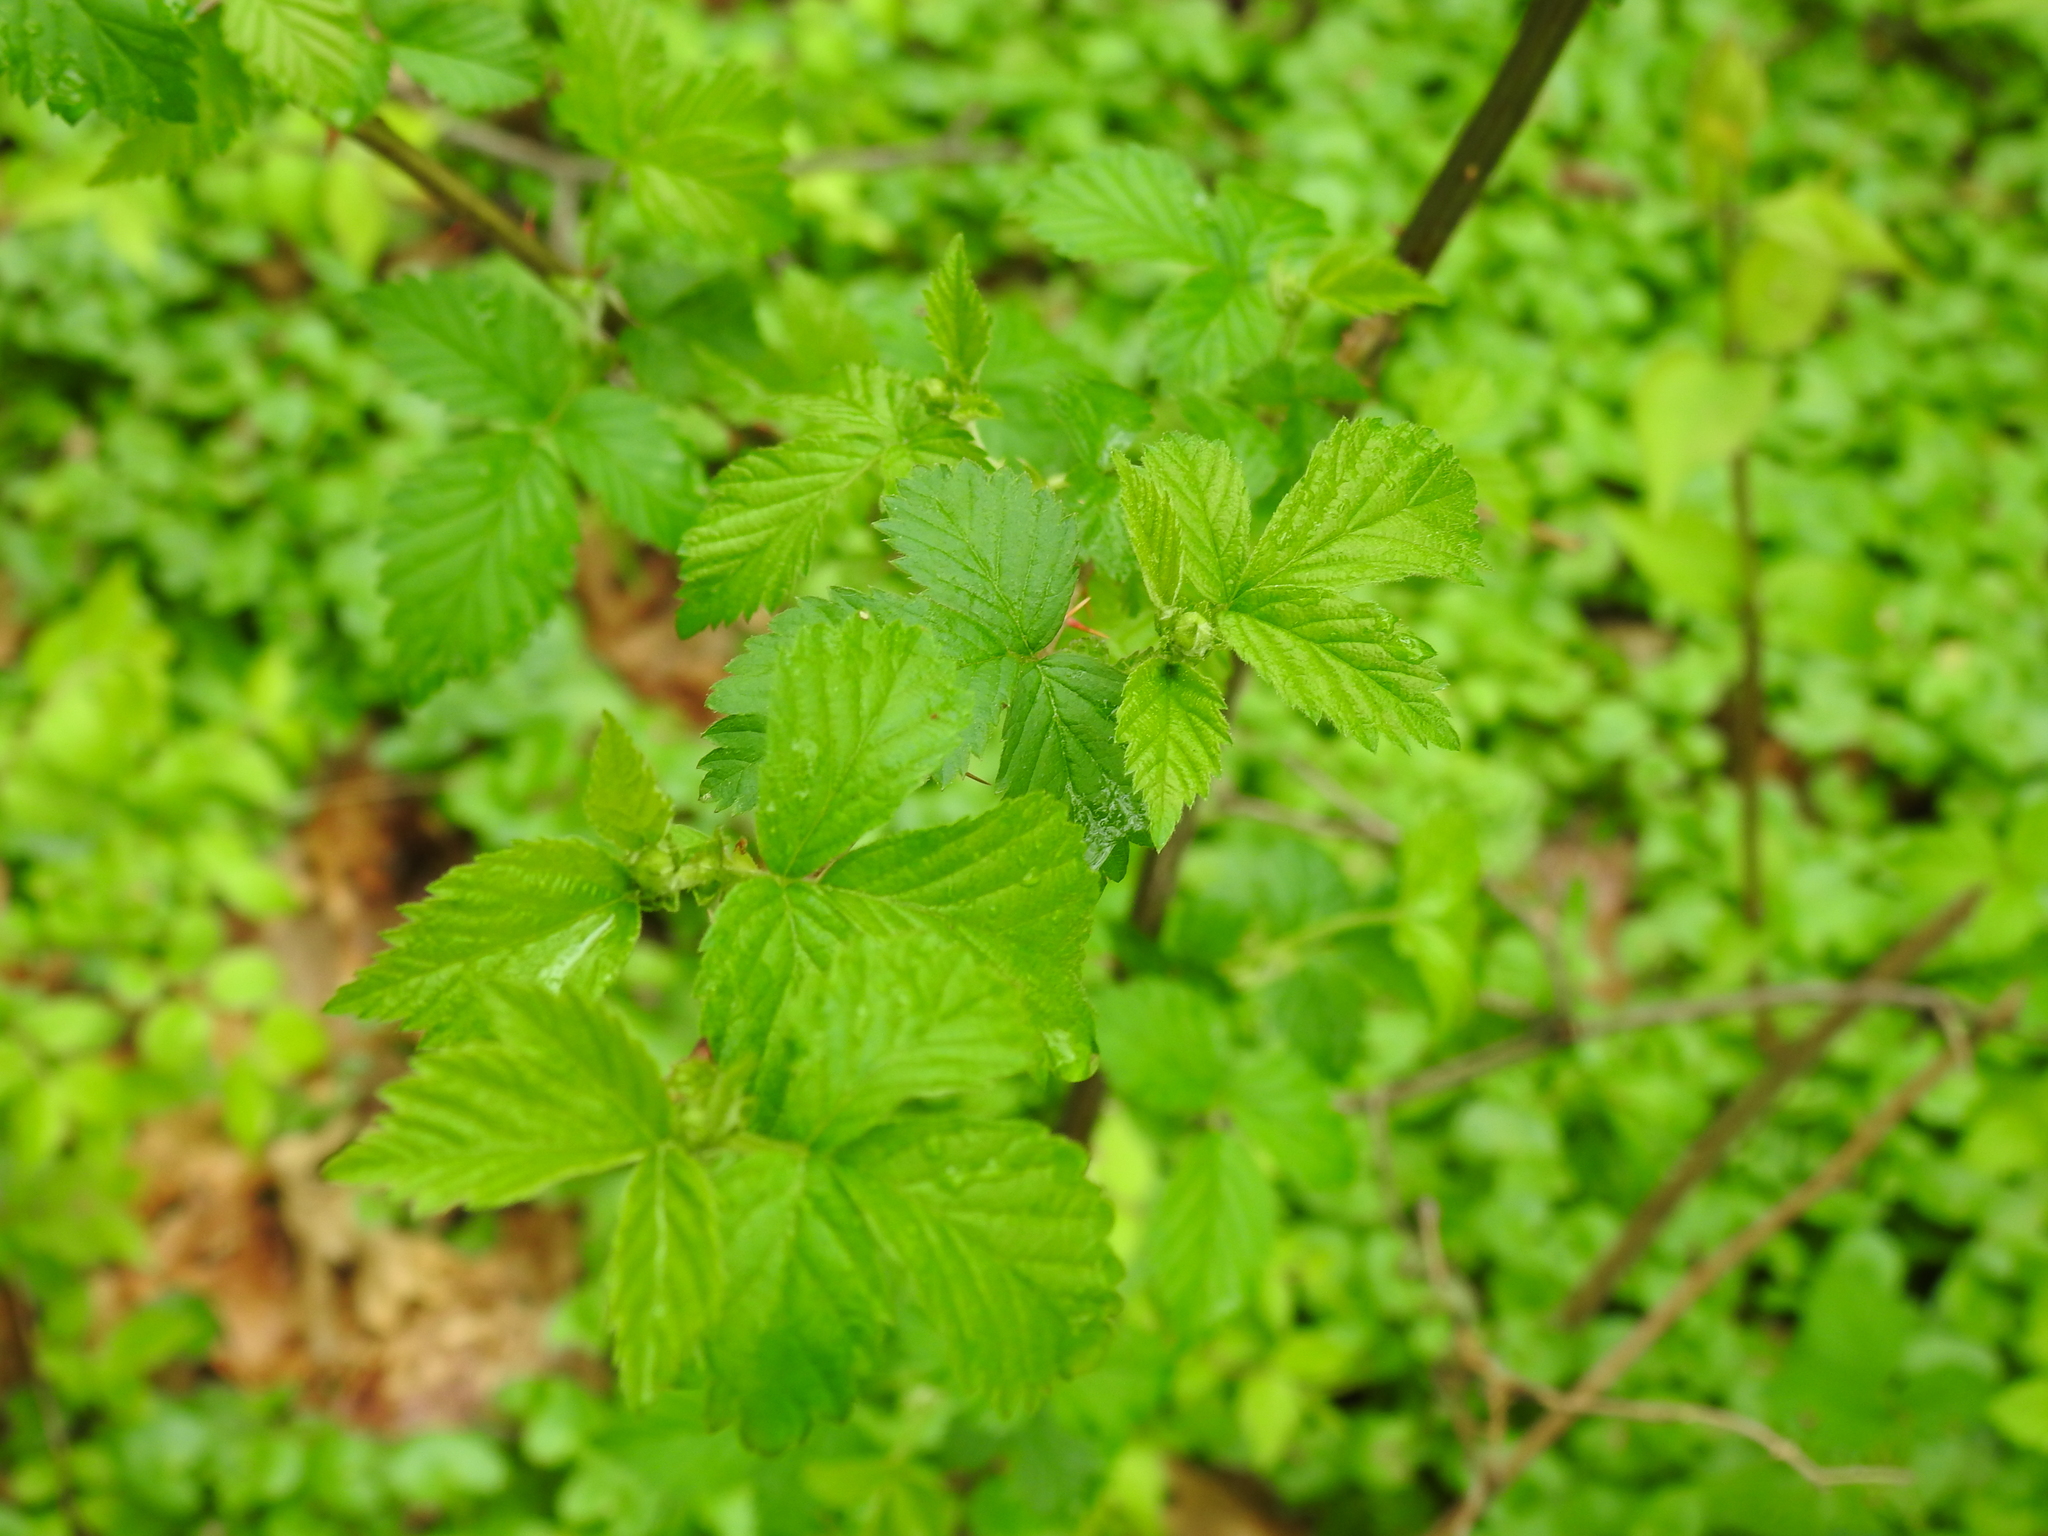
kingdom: Plantae
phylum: Tracheophyta
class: Magnoliopsida
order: Rosales
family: Rosaceae
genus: Rubus
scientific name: Rubus occidentalis
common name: Black raspberry
